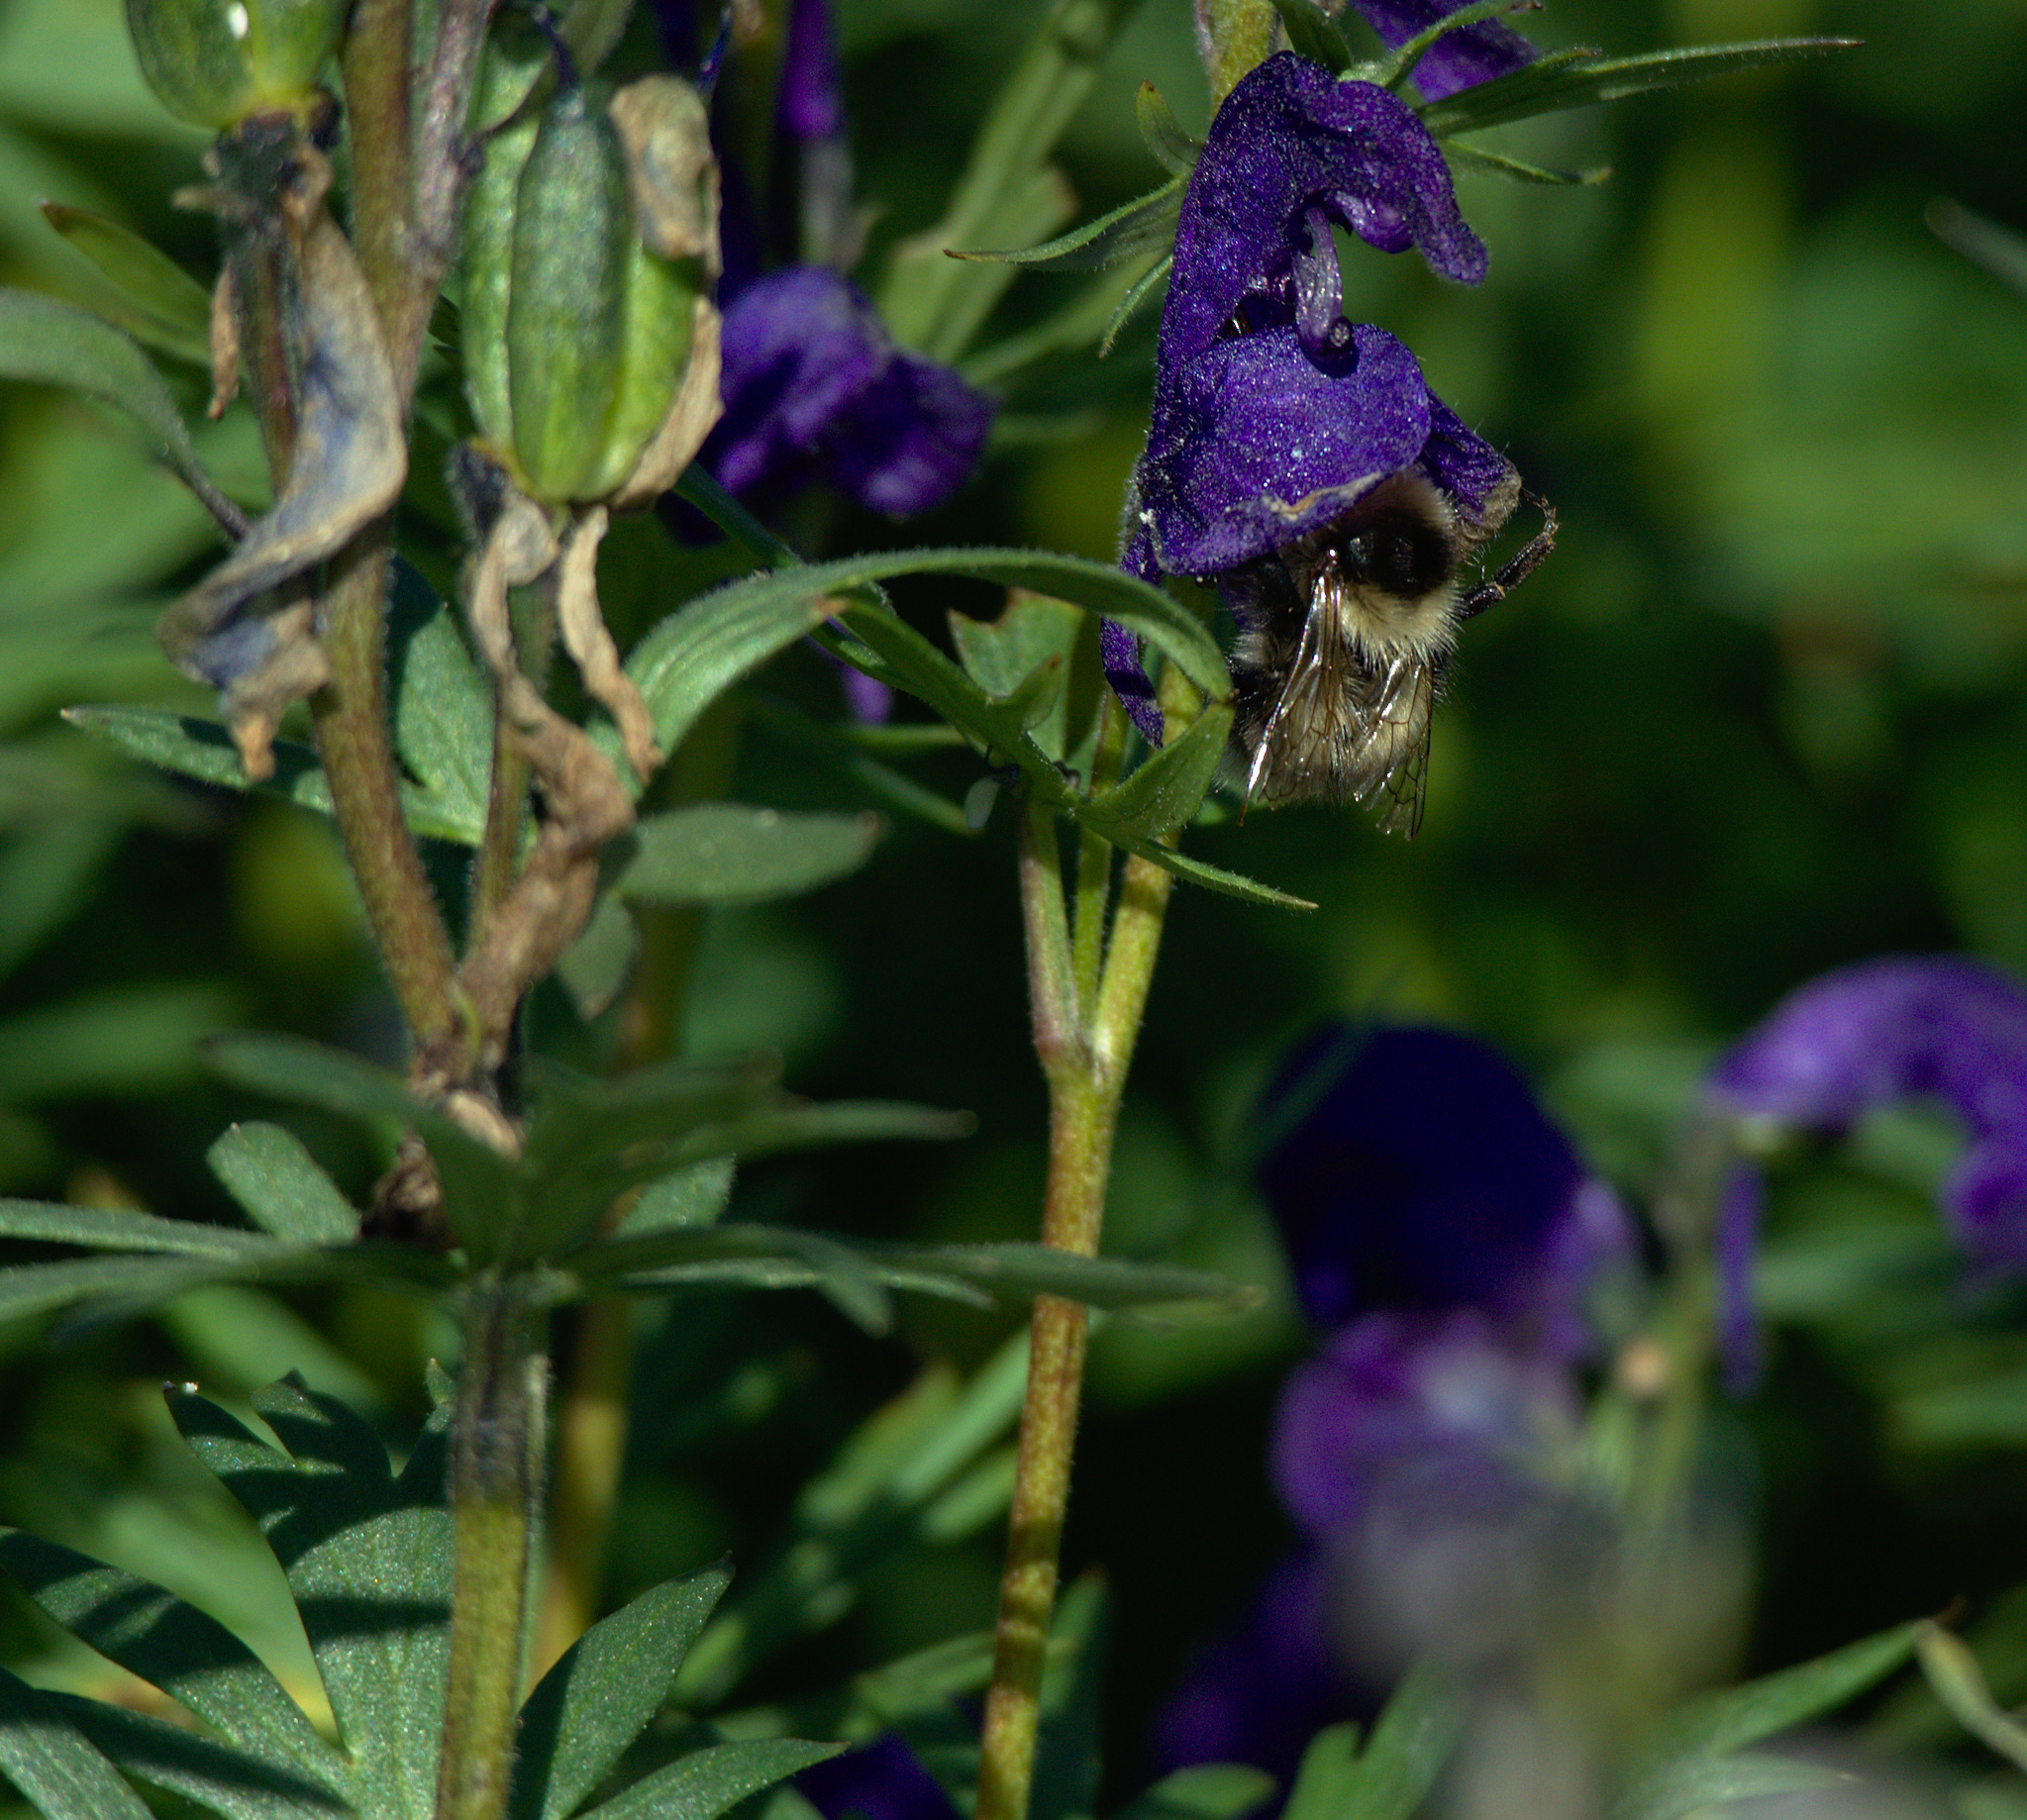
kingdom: Animalia
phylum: Arthropoda
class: Insecta
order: Hymenoptera
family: Apidae
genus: Megabombus
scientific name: Megabombus
